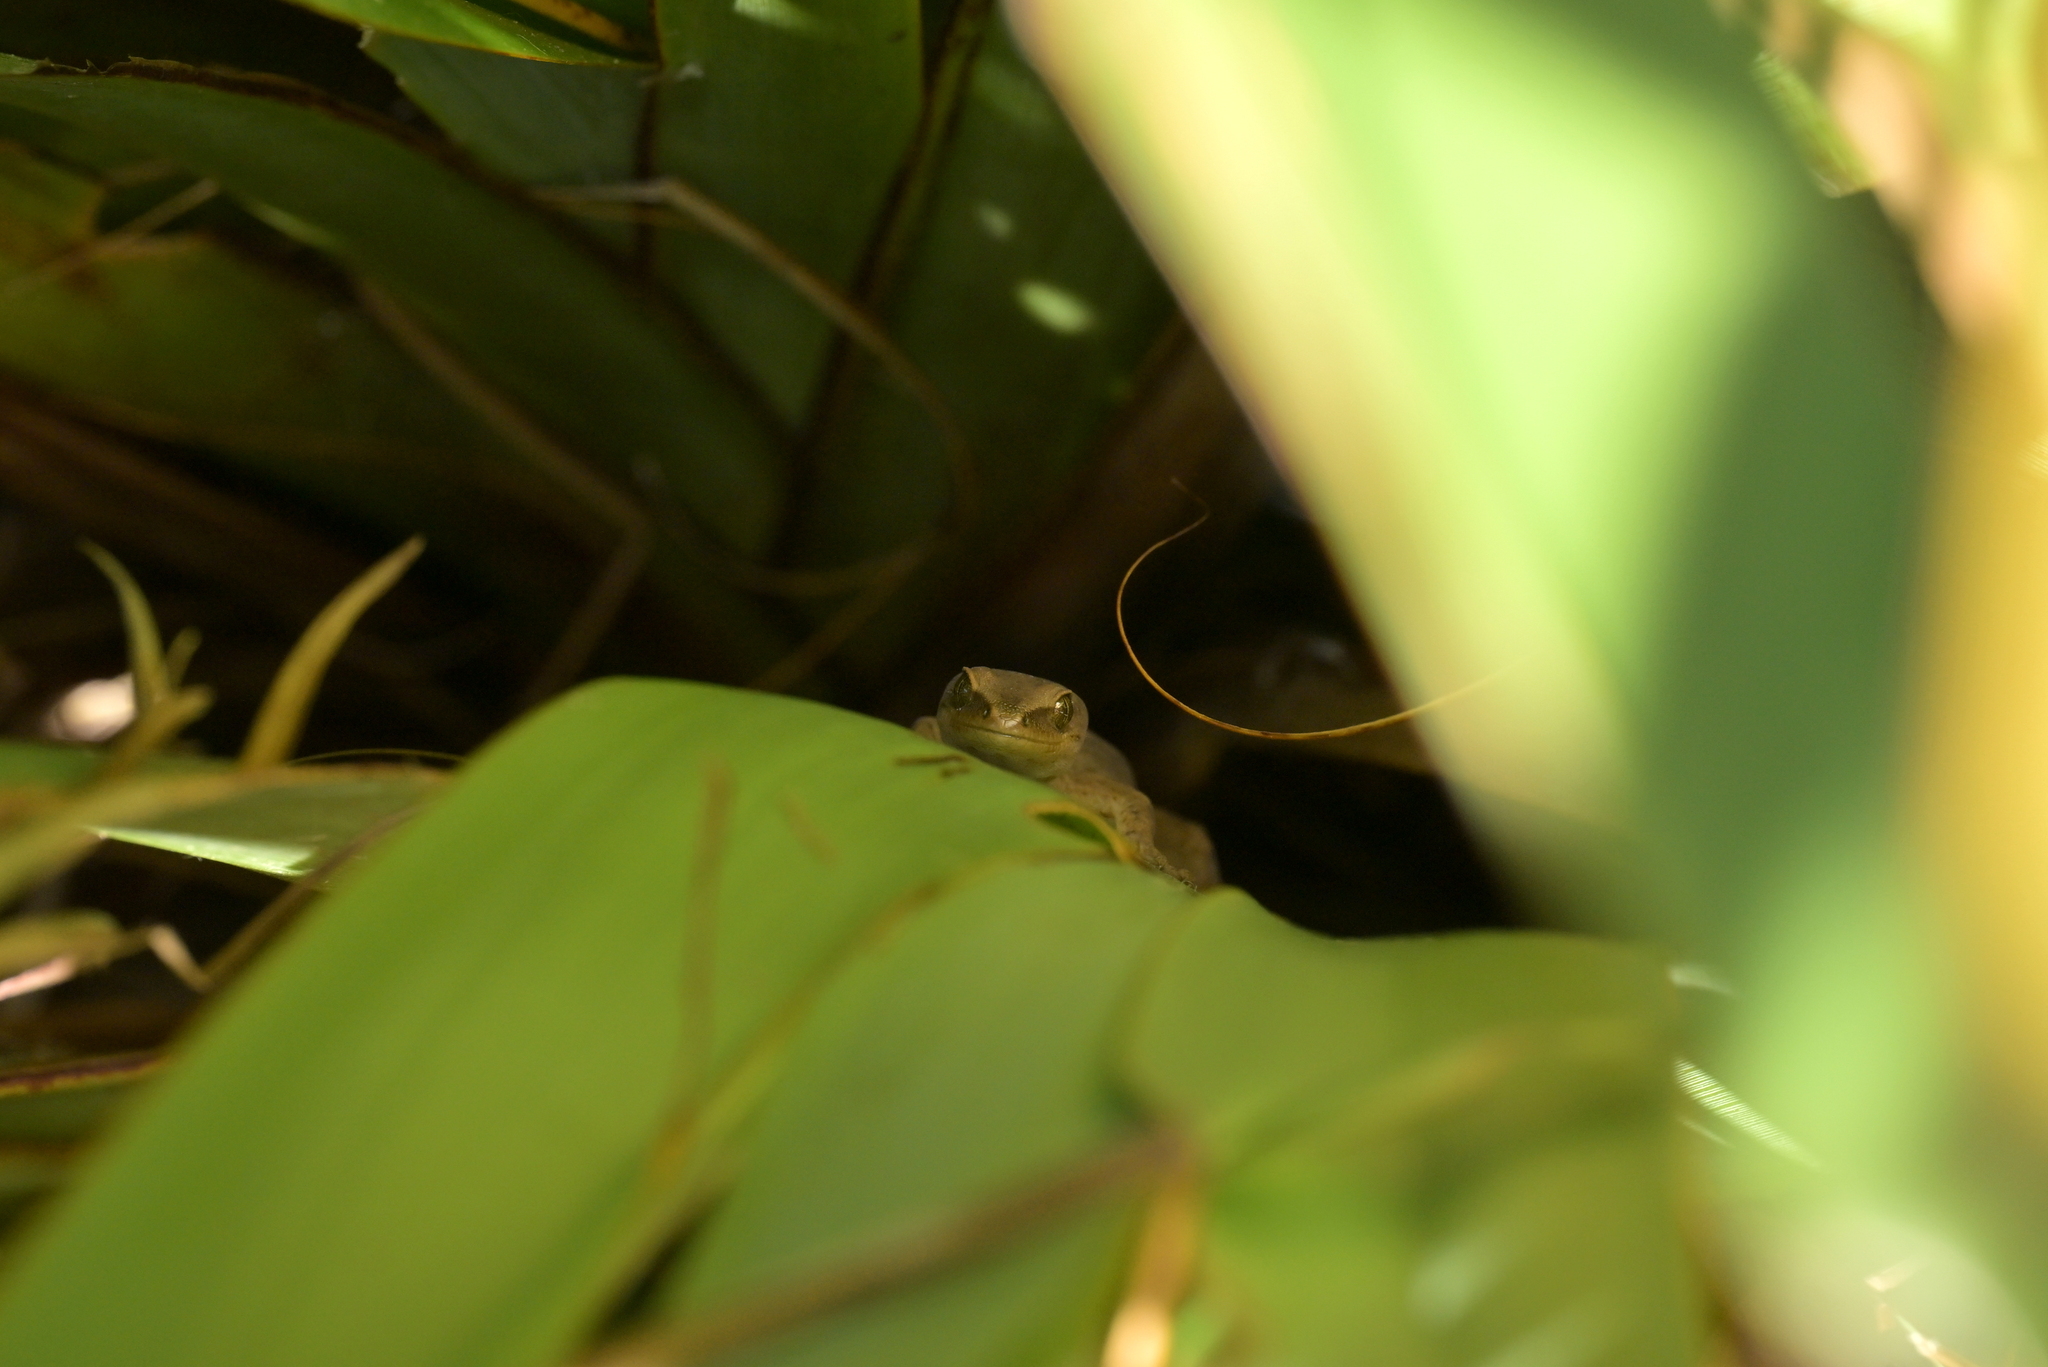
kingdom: Animalia
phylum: Chordata
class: Squamata
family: Diplodactylidae
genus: Woodworthia
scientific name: Woodworthia chrysosiretica
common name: Gold-striped gecko
